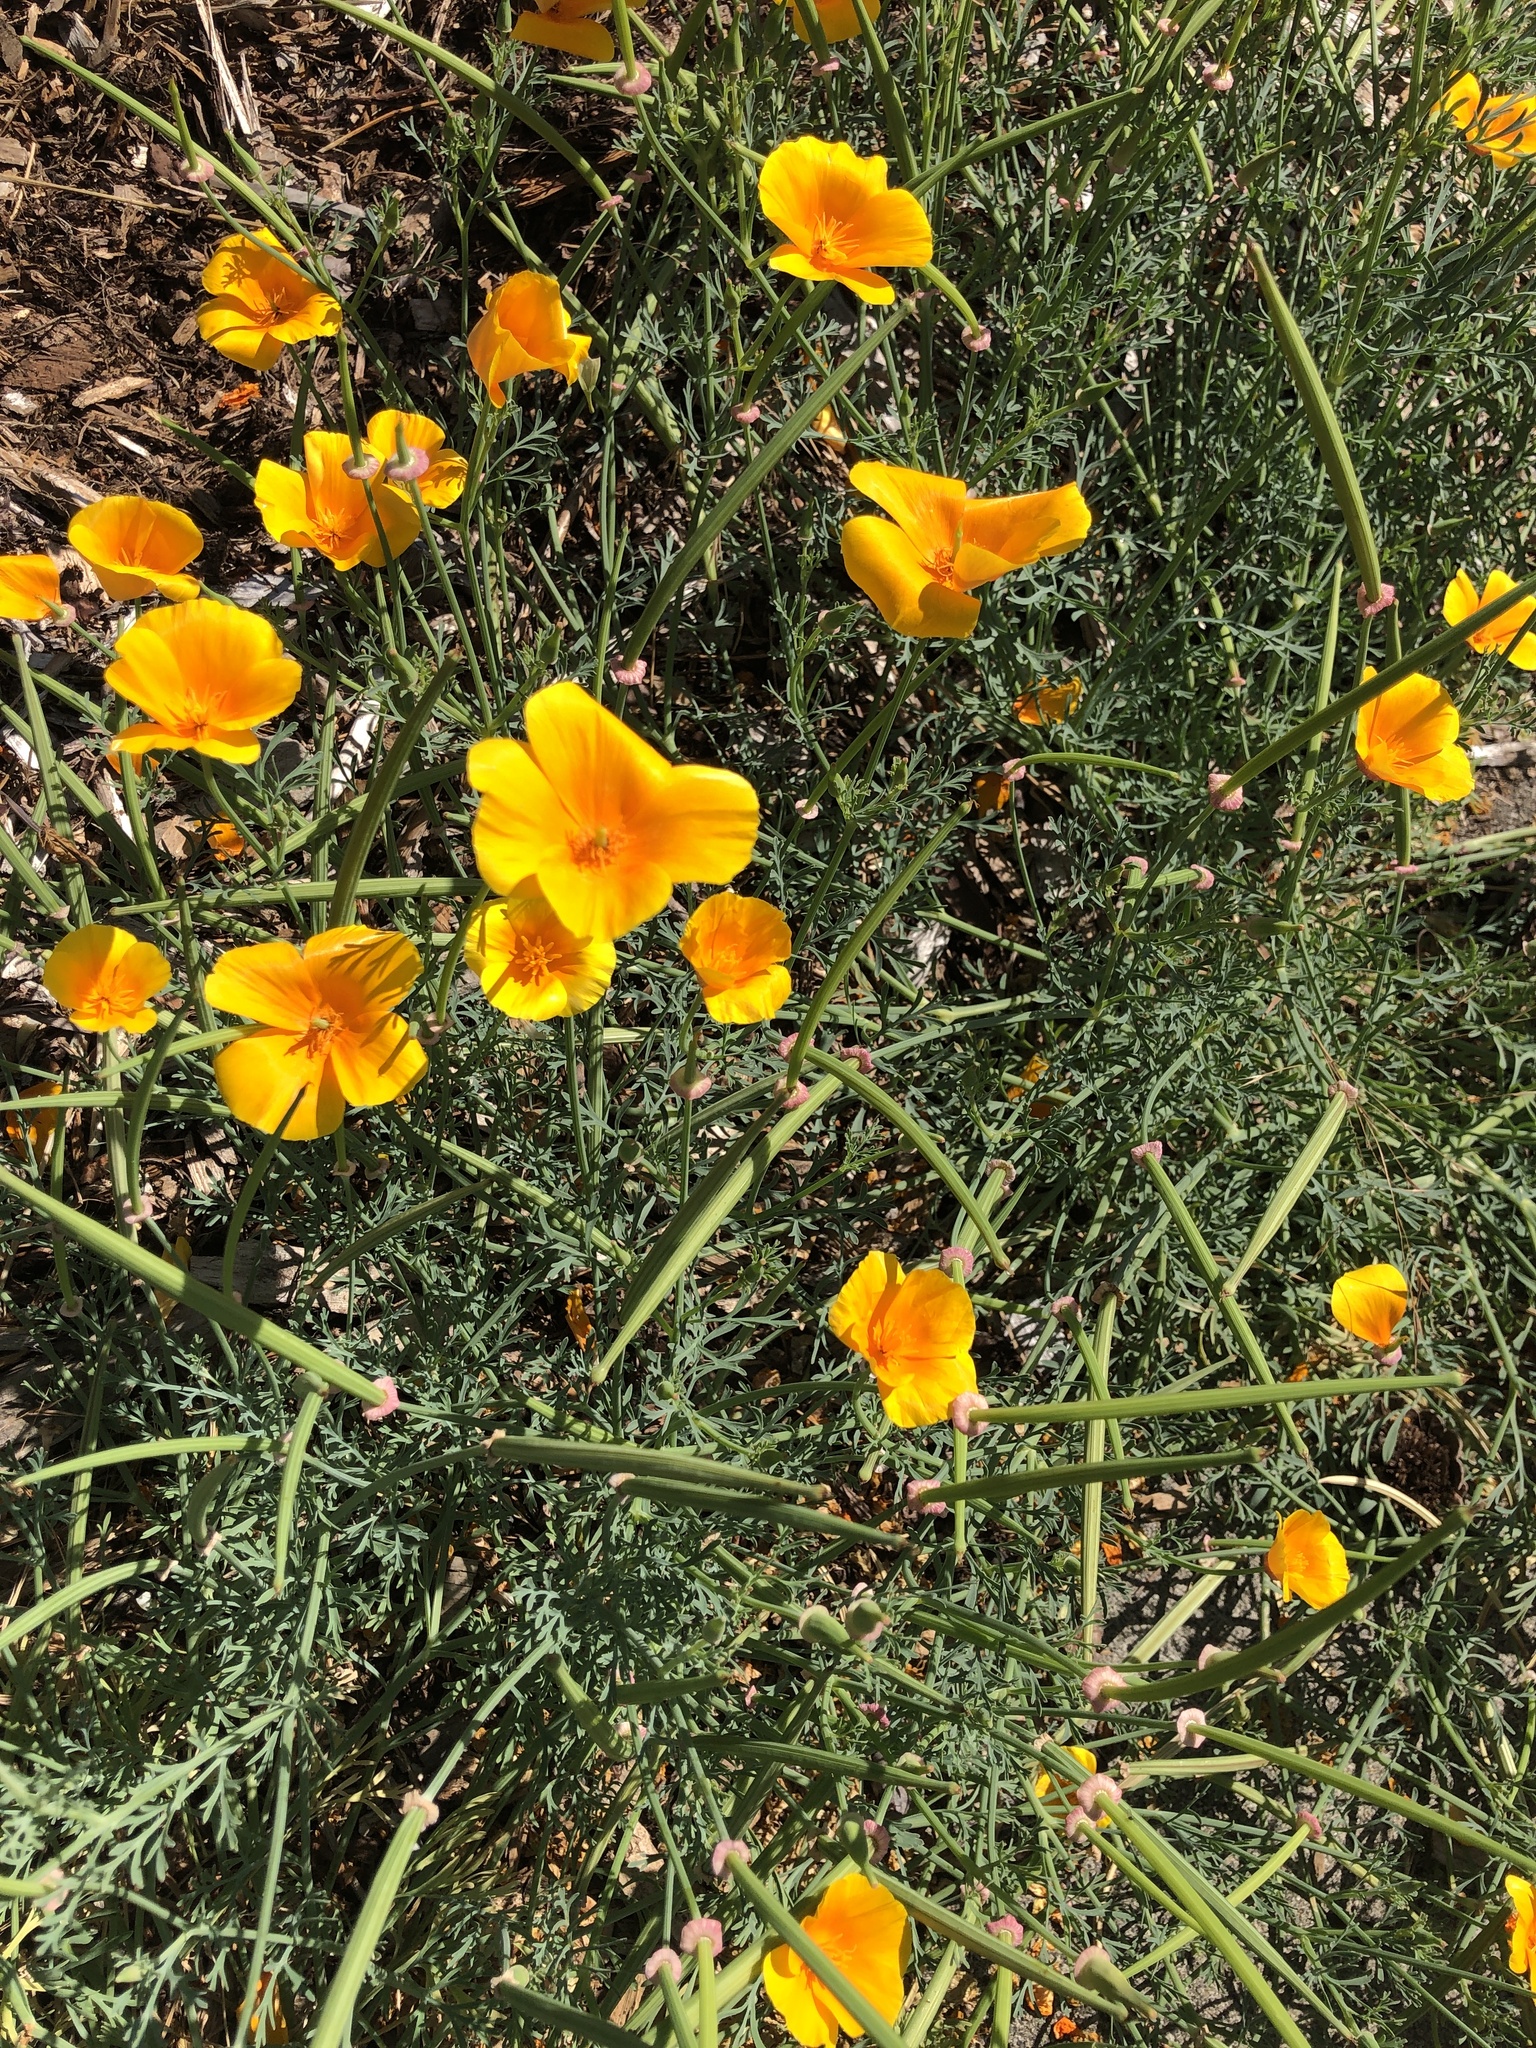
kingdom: Plantae
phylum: Tracheophyta
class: Magnoliopsida
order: Ranunculales
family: Papaveraceae
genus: Eschscholzia
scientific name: Eschscholzia californica
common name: California poppy
